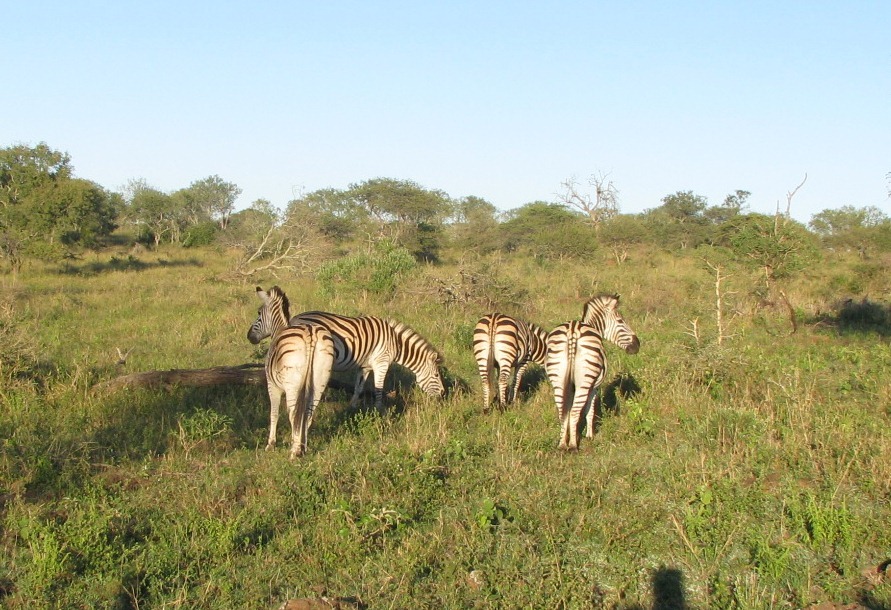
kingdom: Animalia
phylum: Chordata
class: Mammalia
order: Perissodactyla
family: Equidae
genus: Equus
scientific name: Equus quagga
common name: Plains zebra
